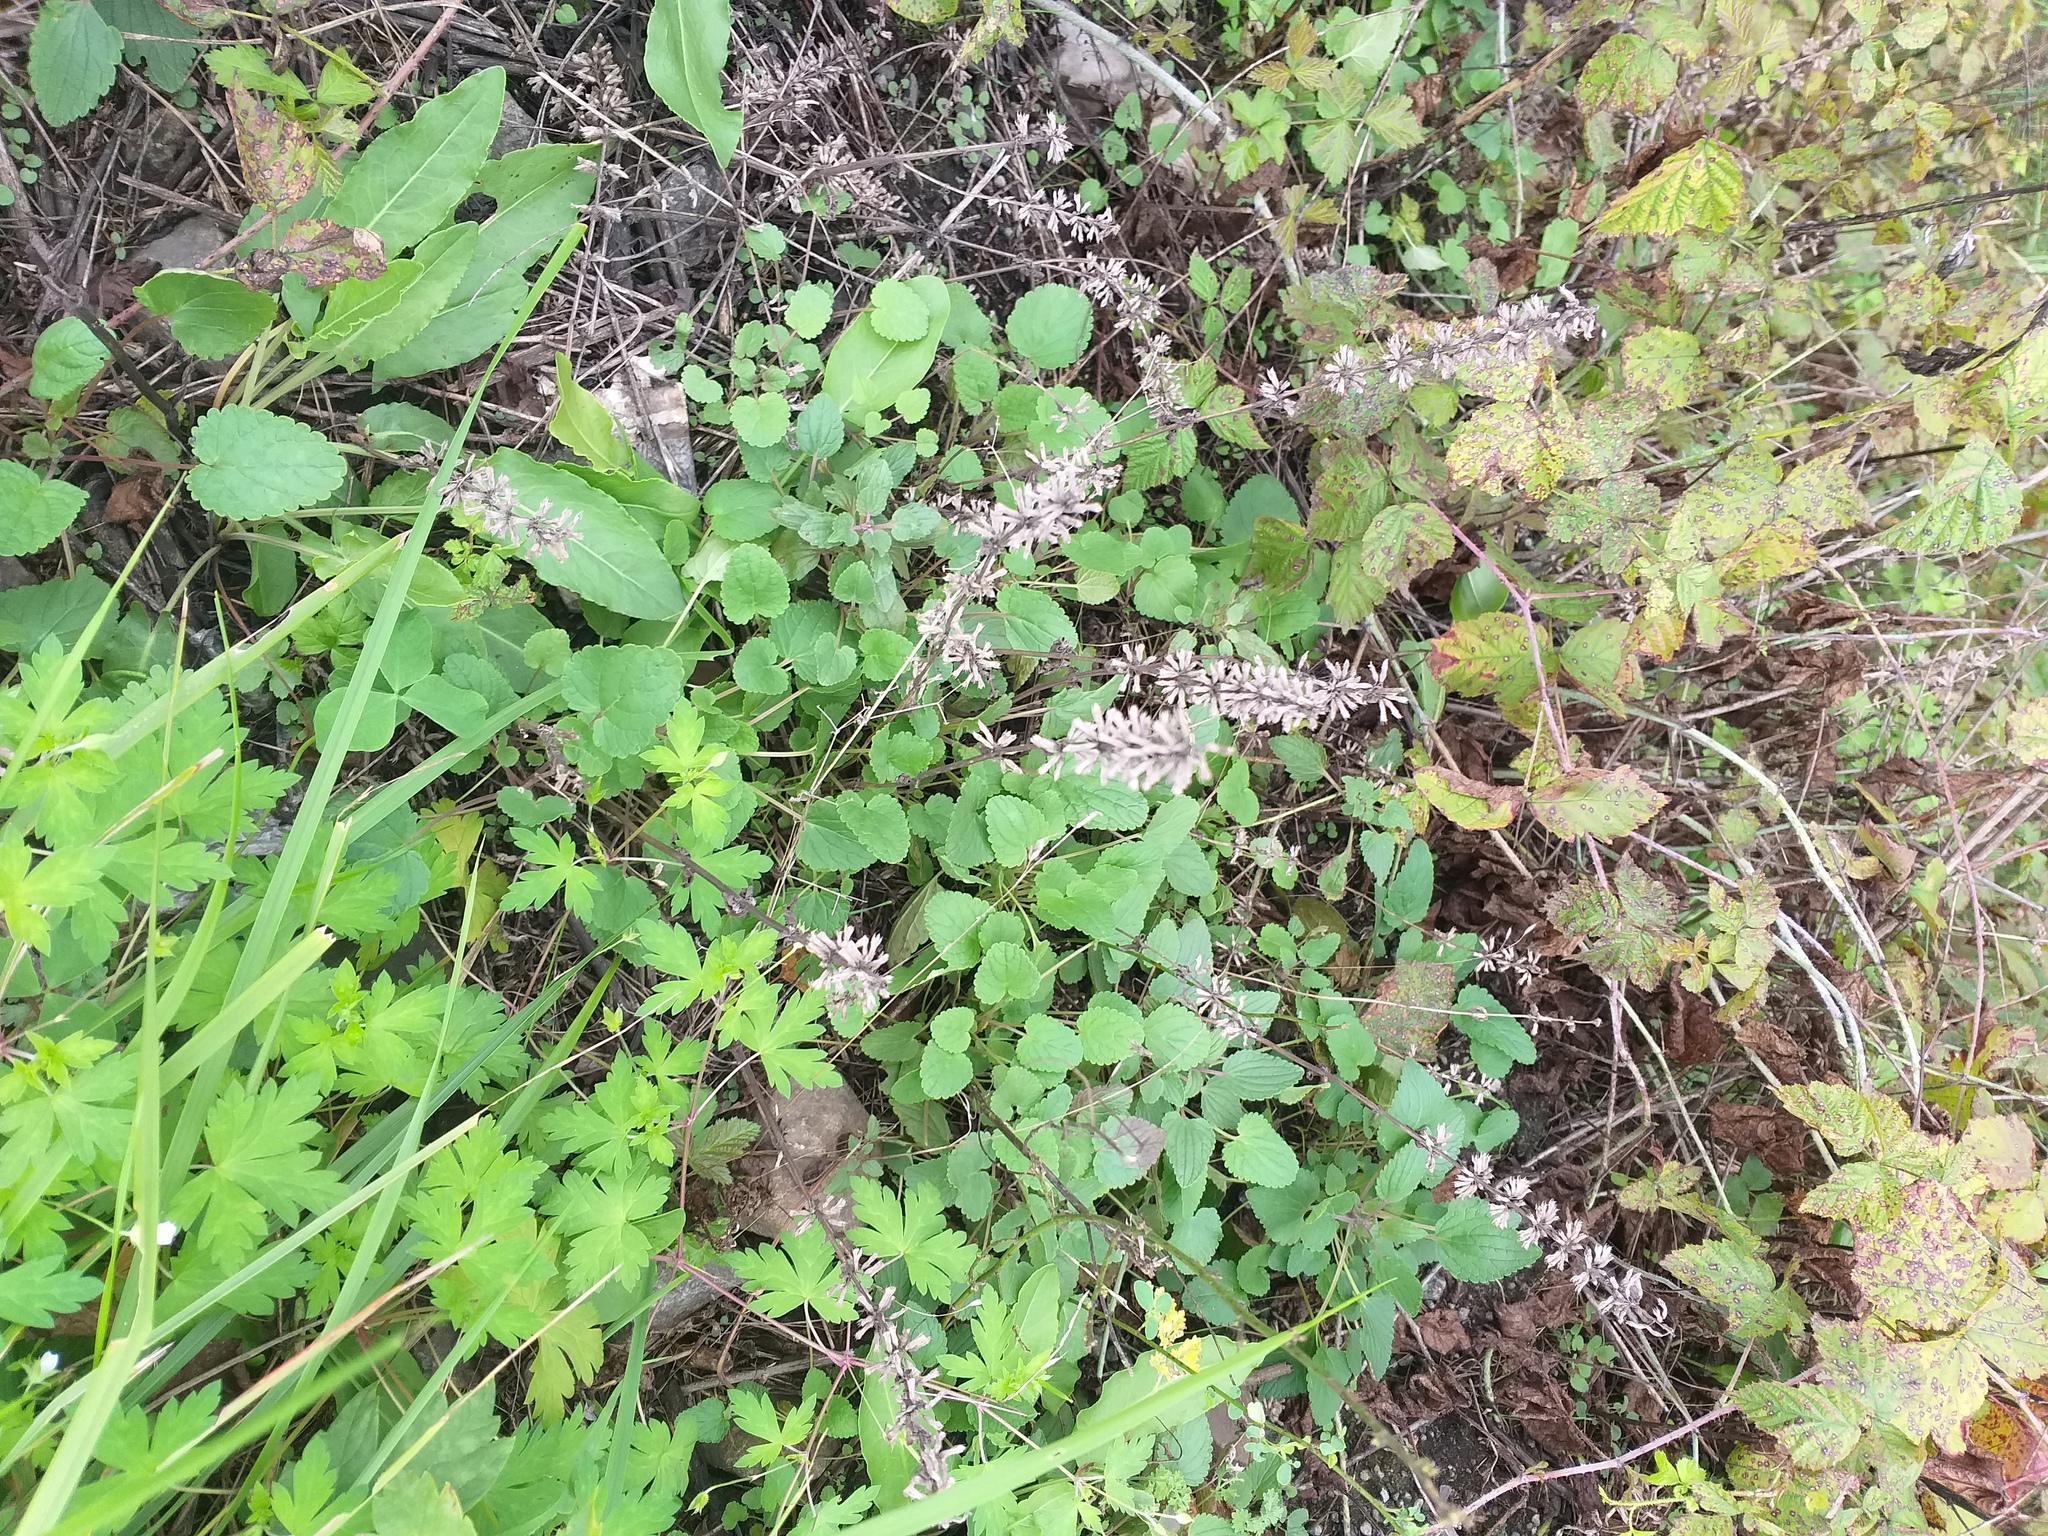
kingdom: Plantae
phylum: Tracheophyta
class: Magnoliopsida
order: Lamiales
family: Lamiaceae
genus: Dracocephalum
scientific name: Dracocephalum nutans
